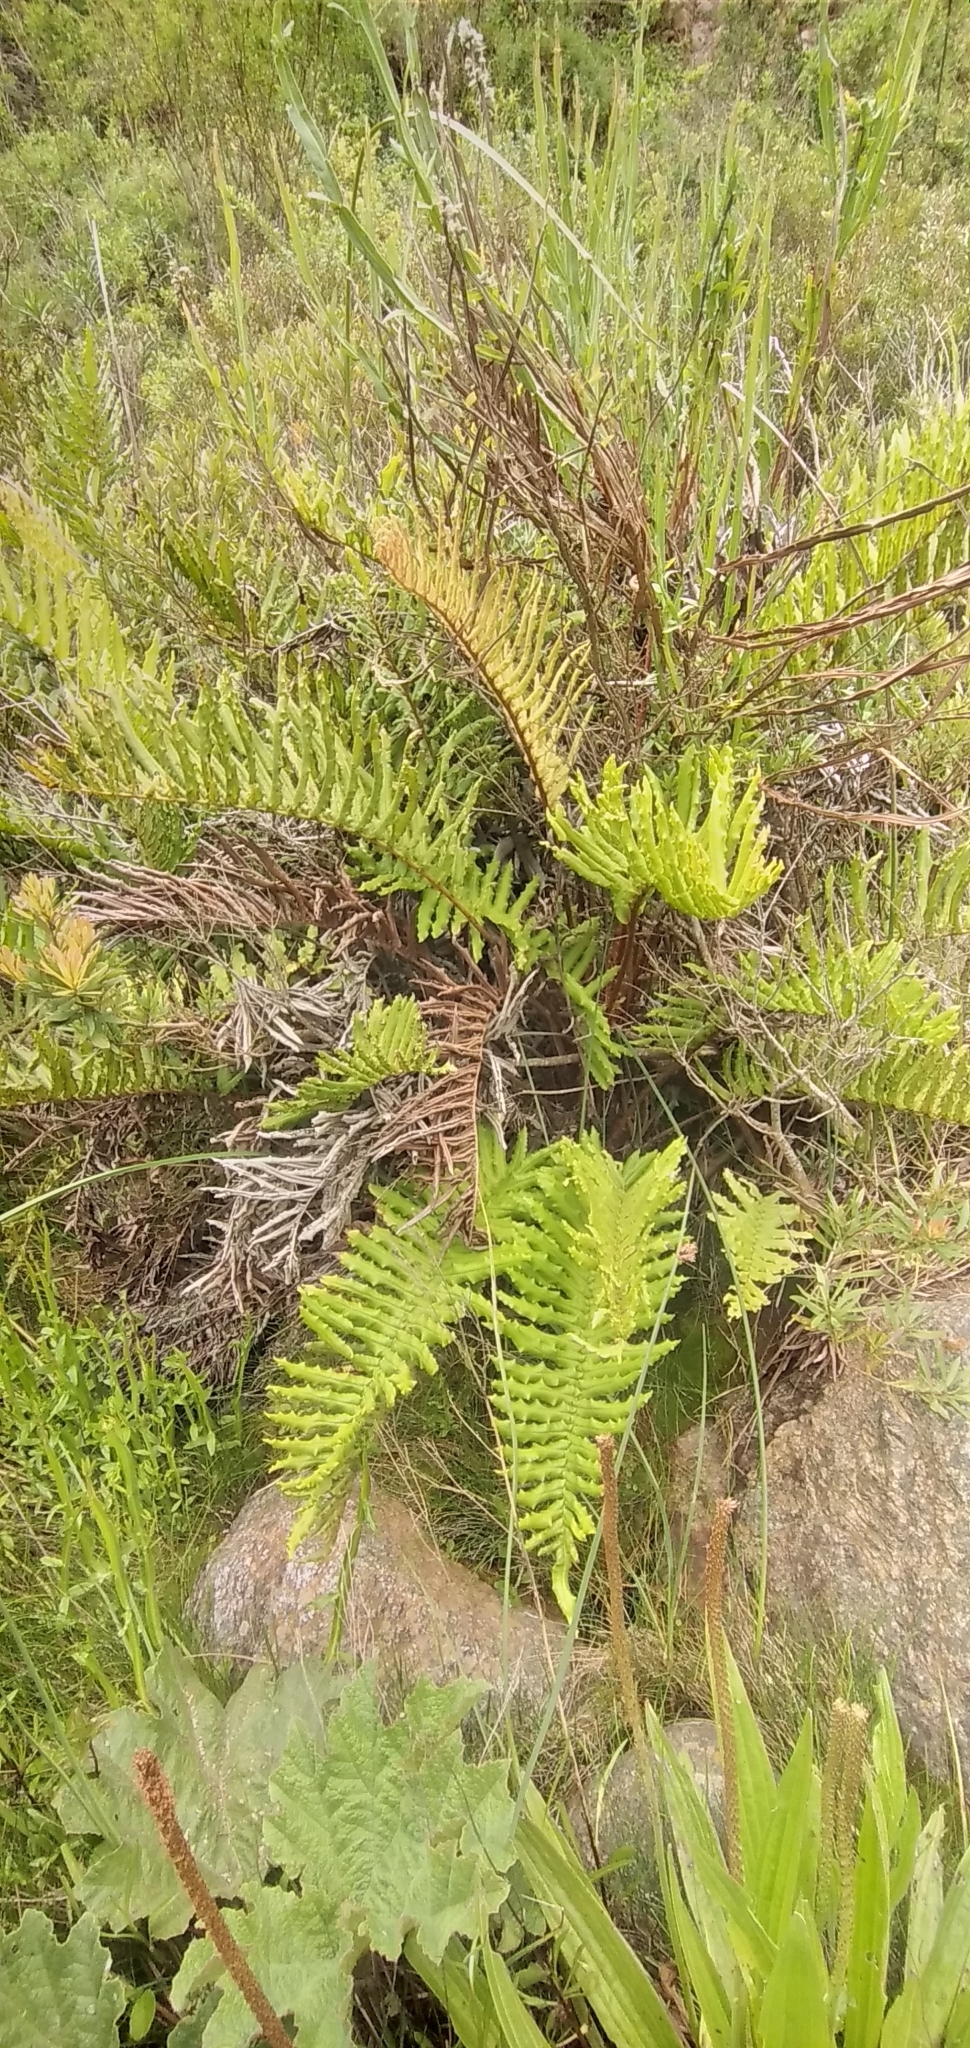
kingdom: Plantae
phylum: Tracheophyta
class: Polypodiopsida
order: Polypodiales
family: Blechnaceae
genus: Parablechnum
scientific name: Parablechnum chilense
